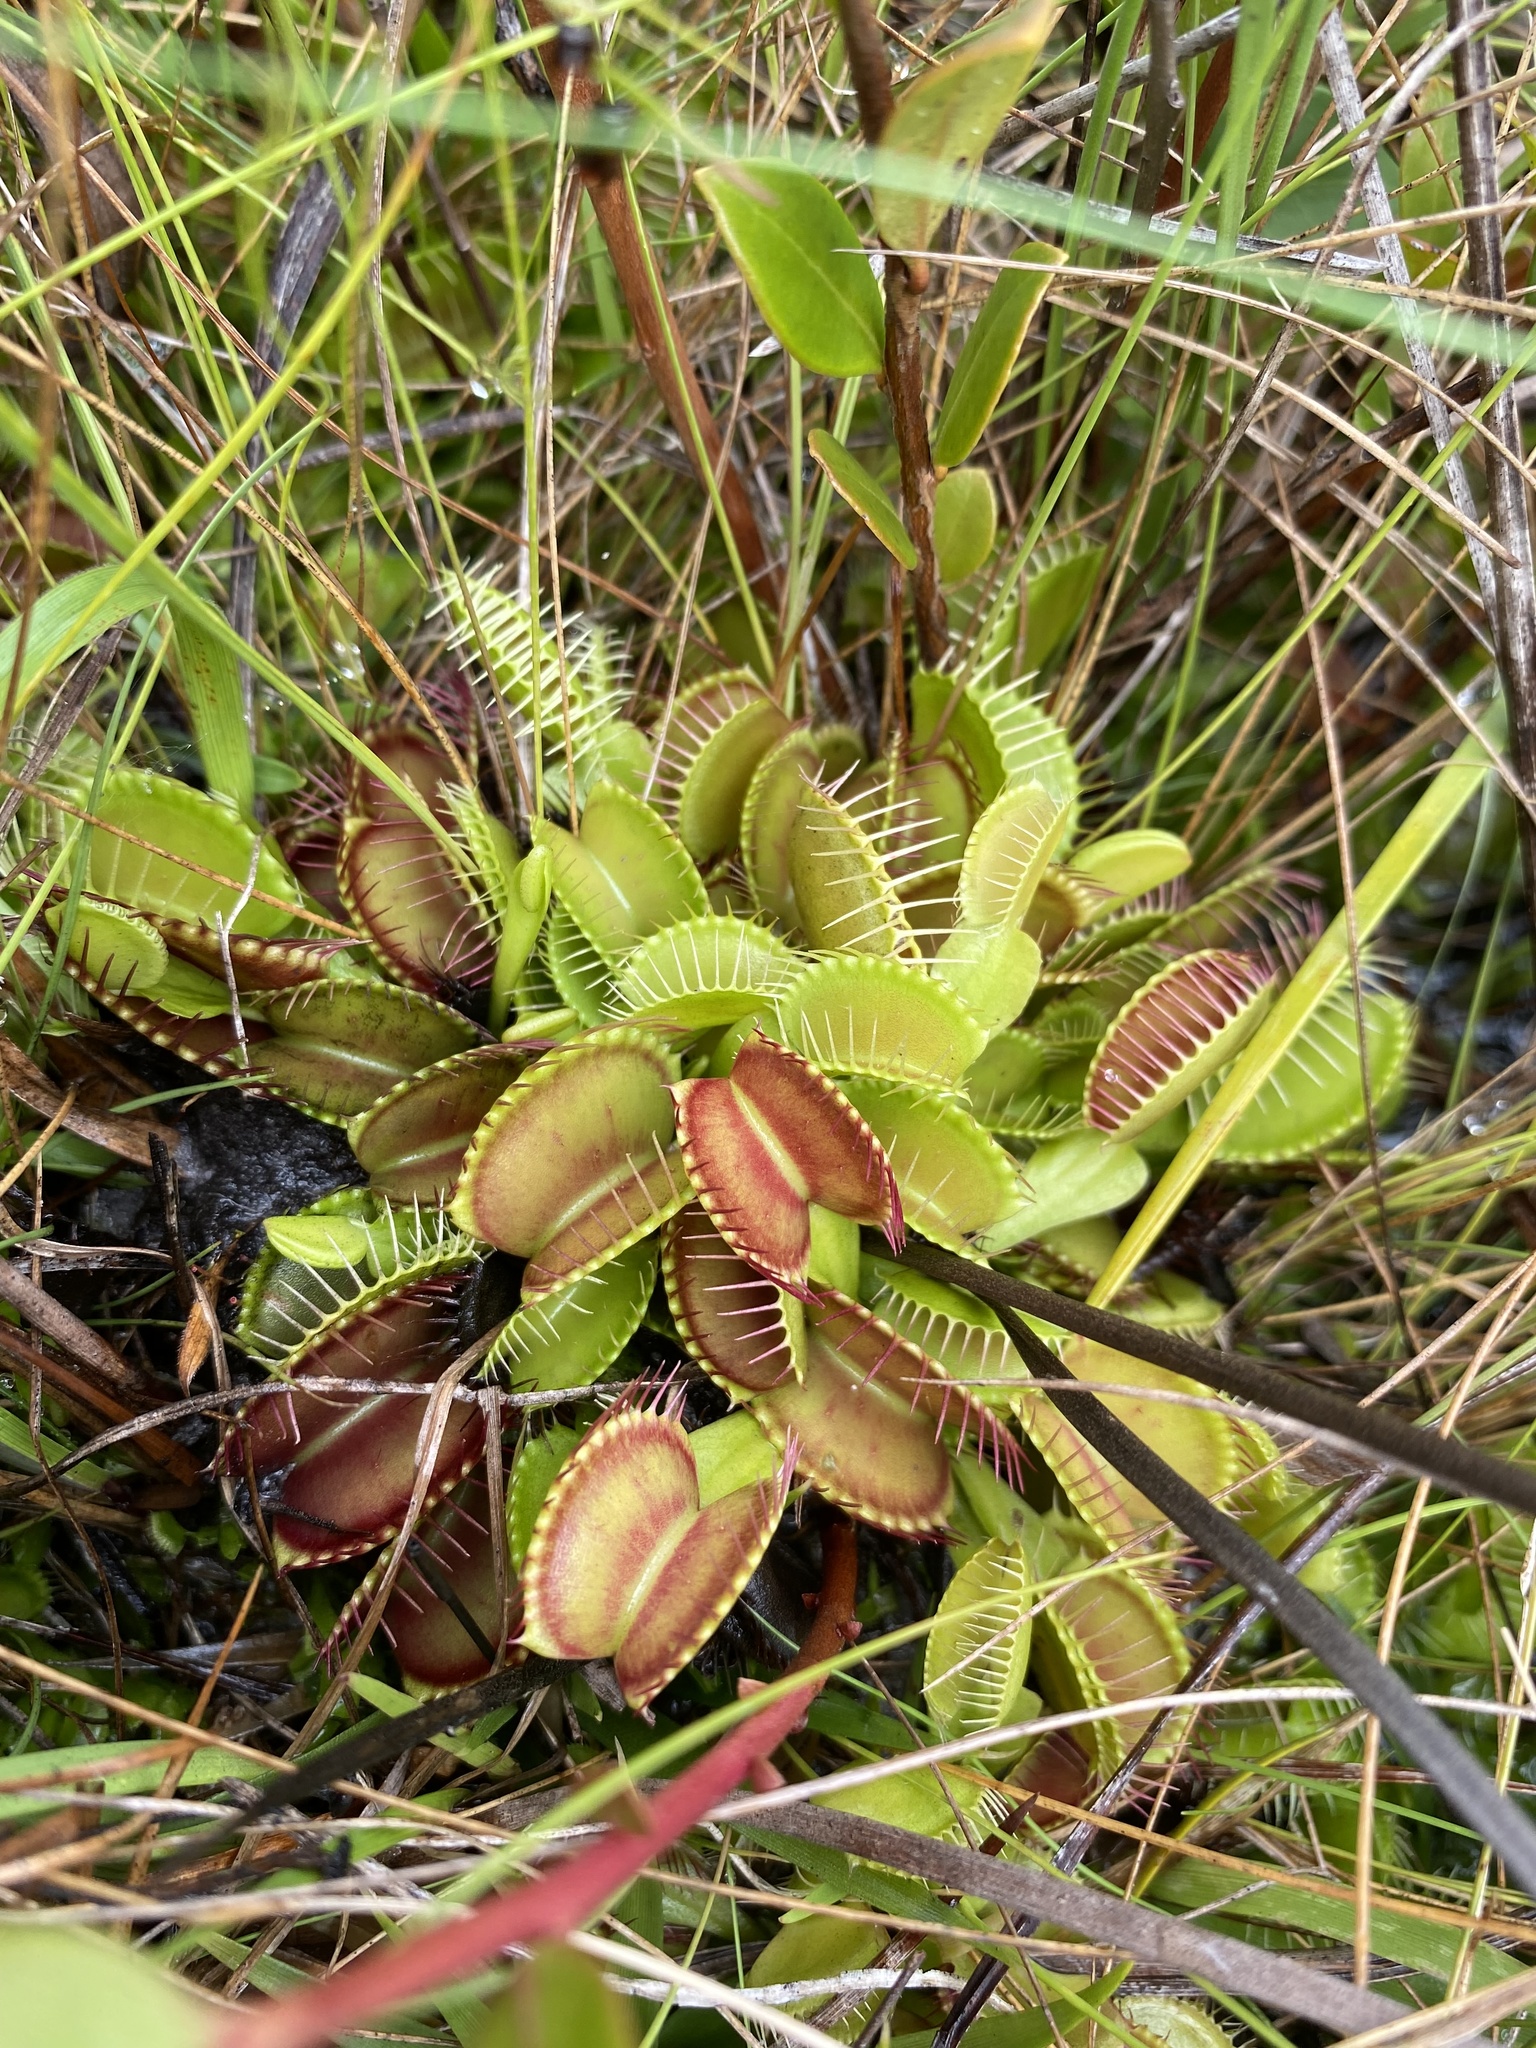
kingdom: Plantae
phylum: Tracheophyta
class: Magnoliopsida
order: Caryophyllales
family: Droseraceae
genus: Dionaea
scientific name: Dionaea muscipula
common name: Venus flytrap
